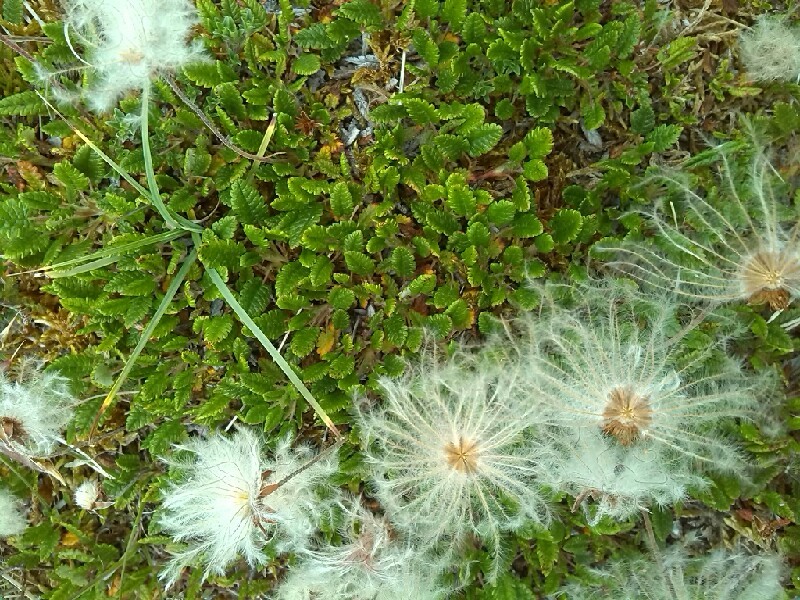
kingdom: Plantae
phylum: Tracheophyta
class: Magnoliopsida
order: Rosales
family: Rosaceae
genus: Dryas
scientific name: Dryas octopetala
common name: Eight-petal mountain-avens
